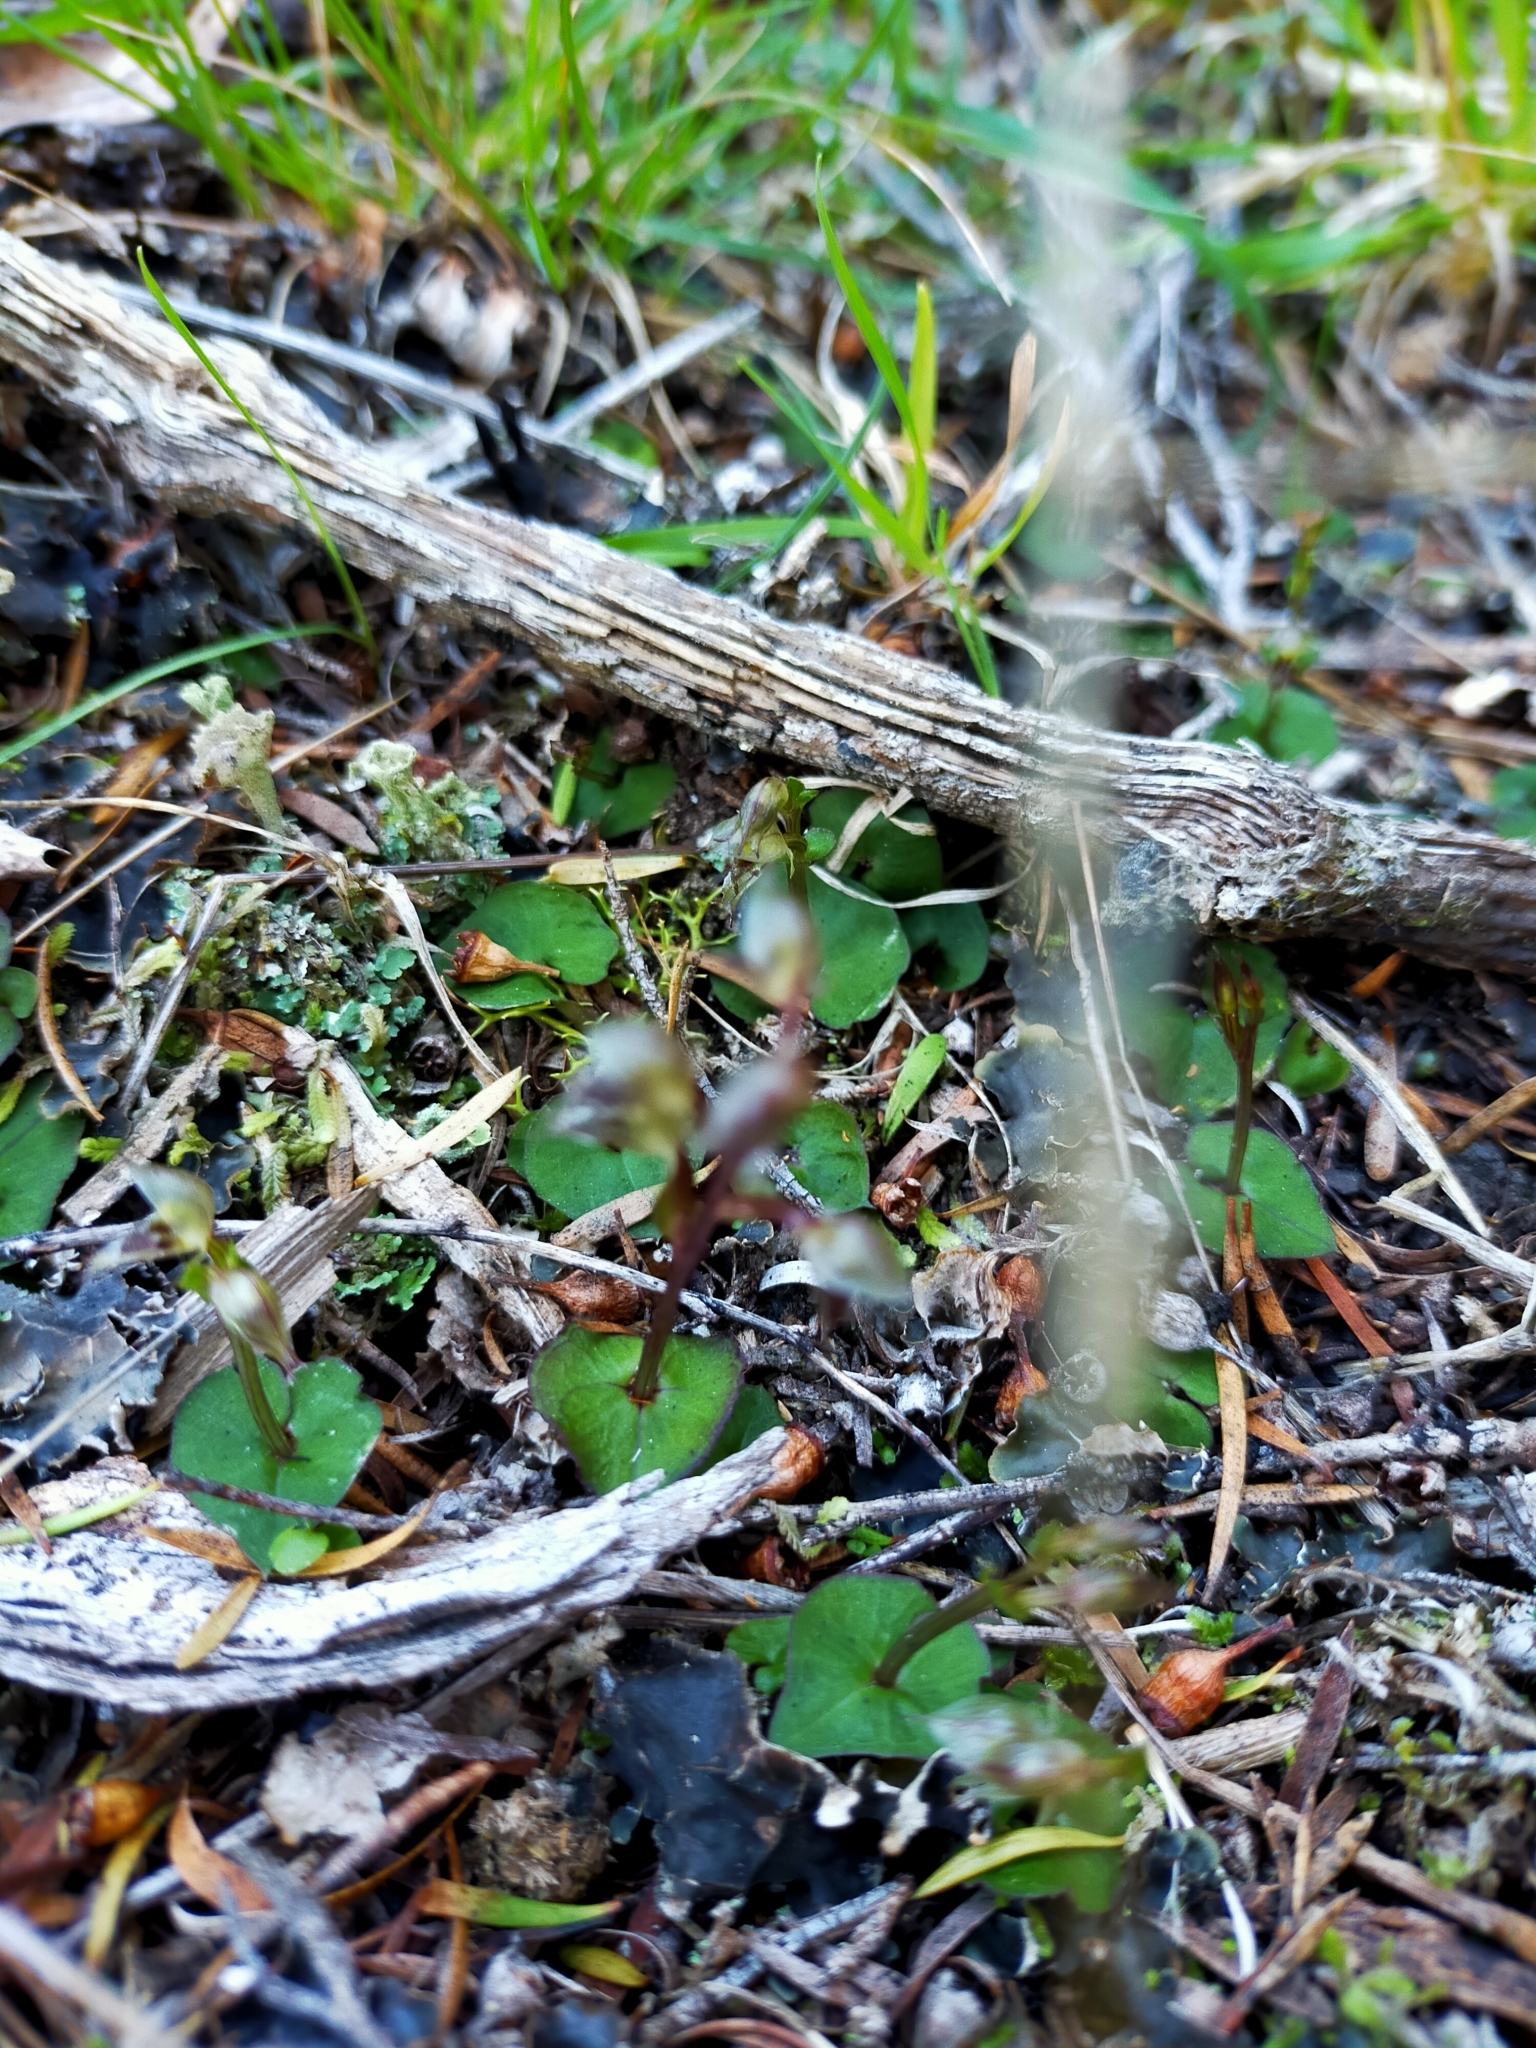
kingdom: Plantae
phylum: Tracheophyta
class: Liliopsida
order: Asparagales
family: Orchidaceae
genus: Acianthus
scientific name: Acianthus sinclairii
